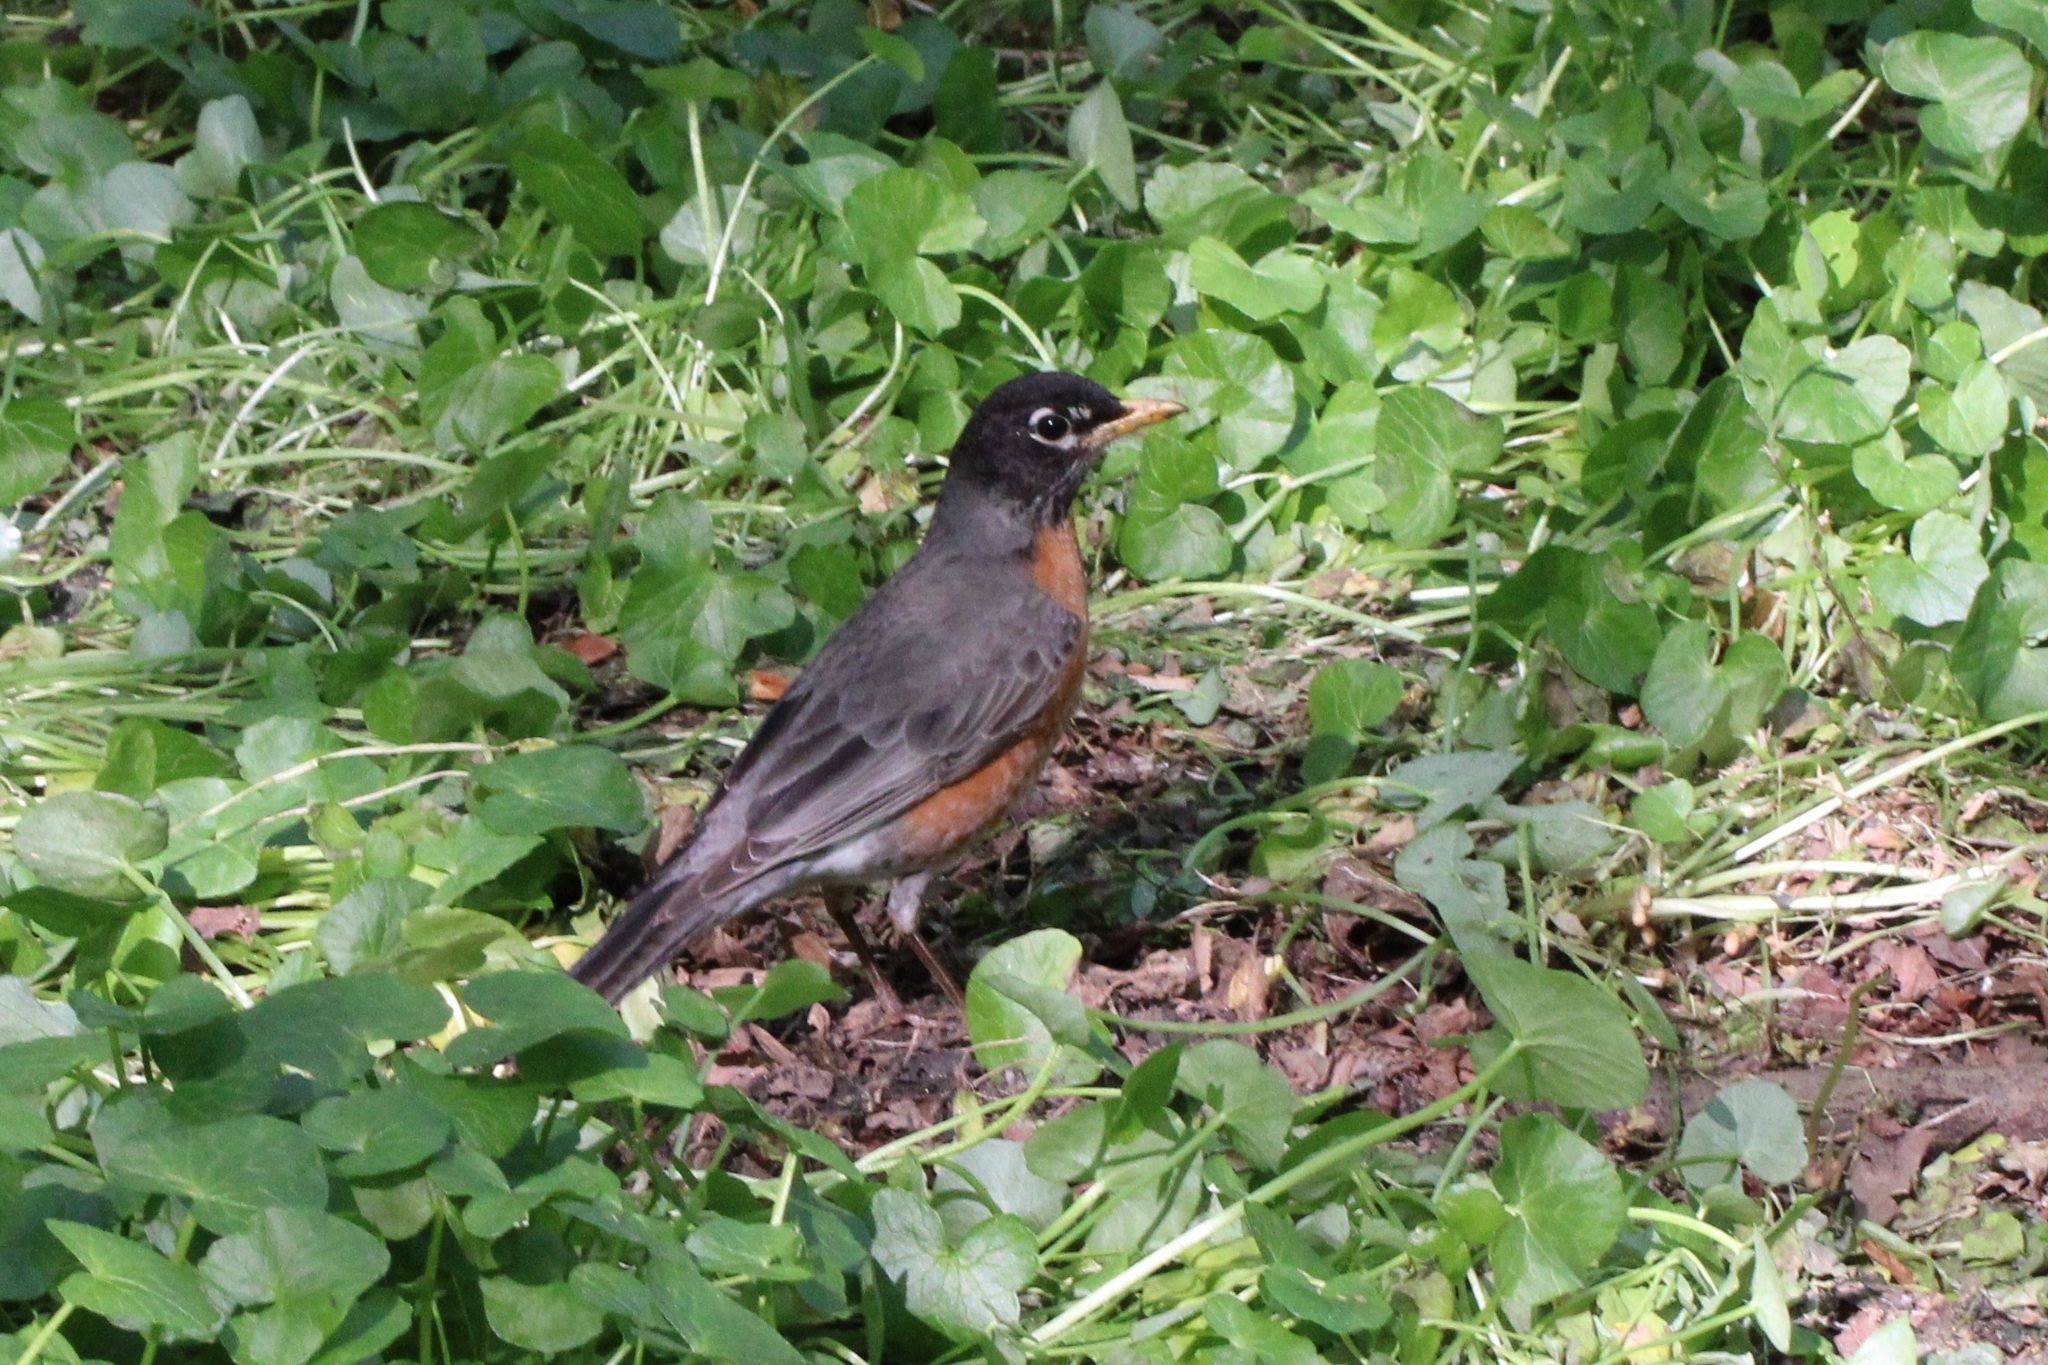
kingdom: Animalia
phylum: Chordata
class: Aves
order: Passeriformes
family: Turdidae
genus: Turdus
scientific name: Turdus migratorius
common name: American robin
